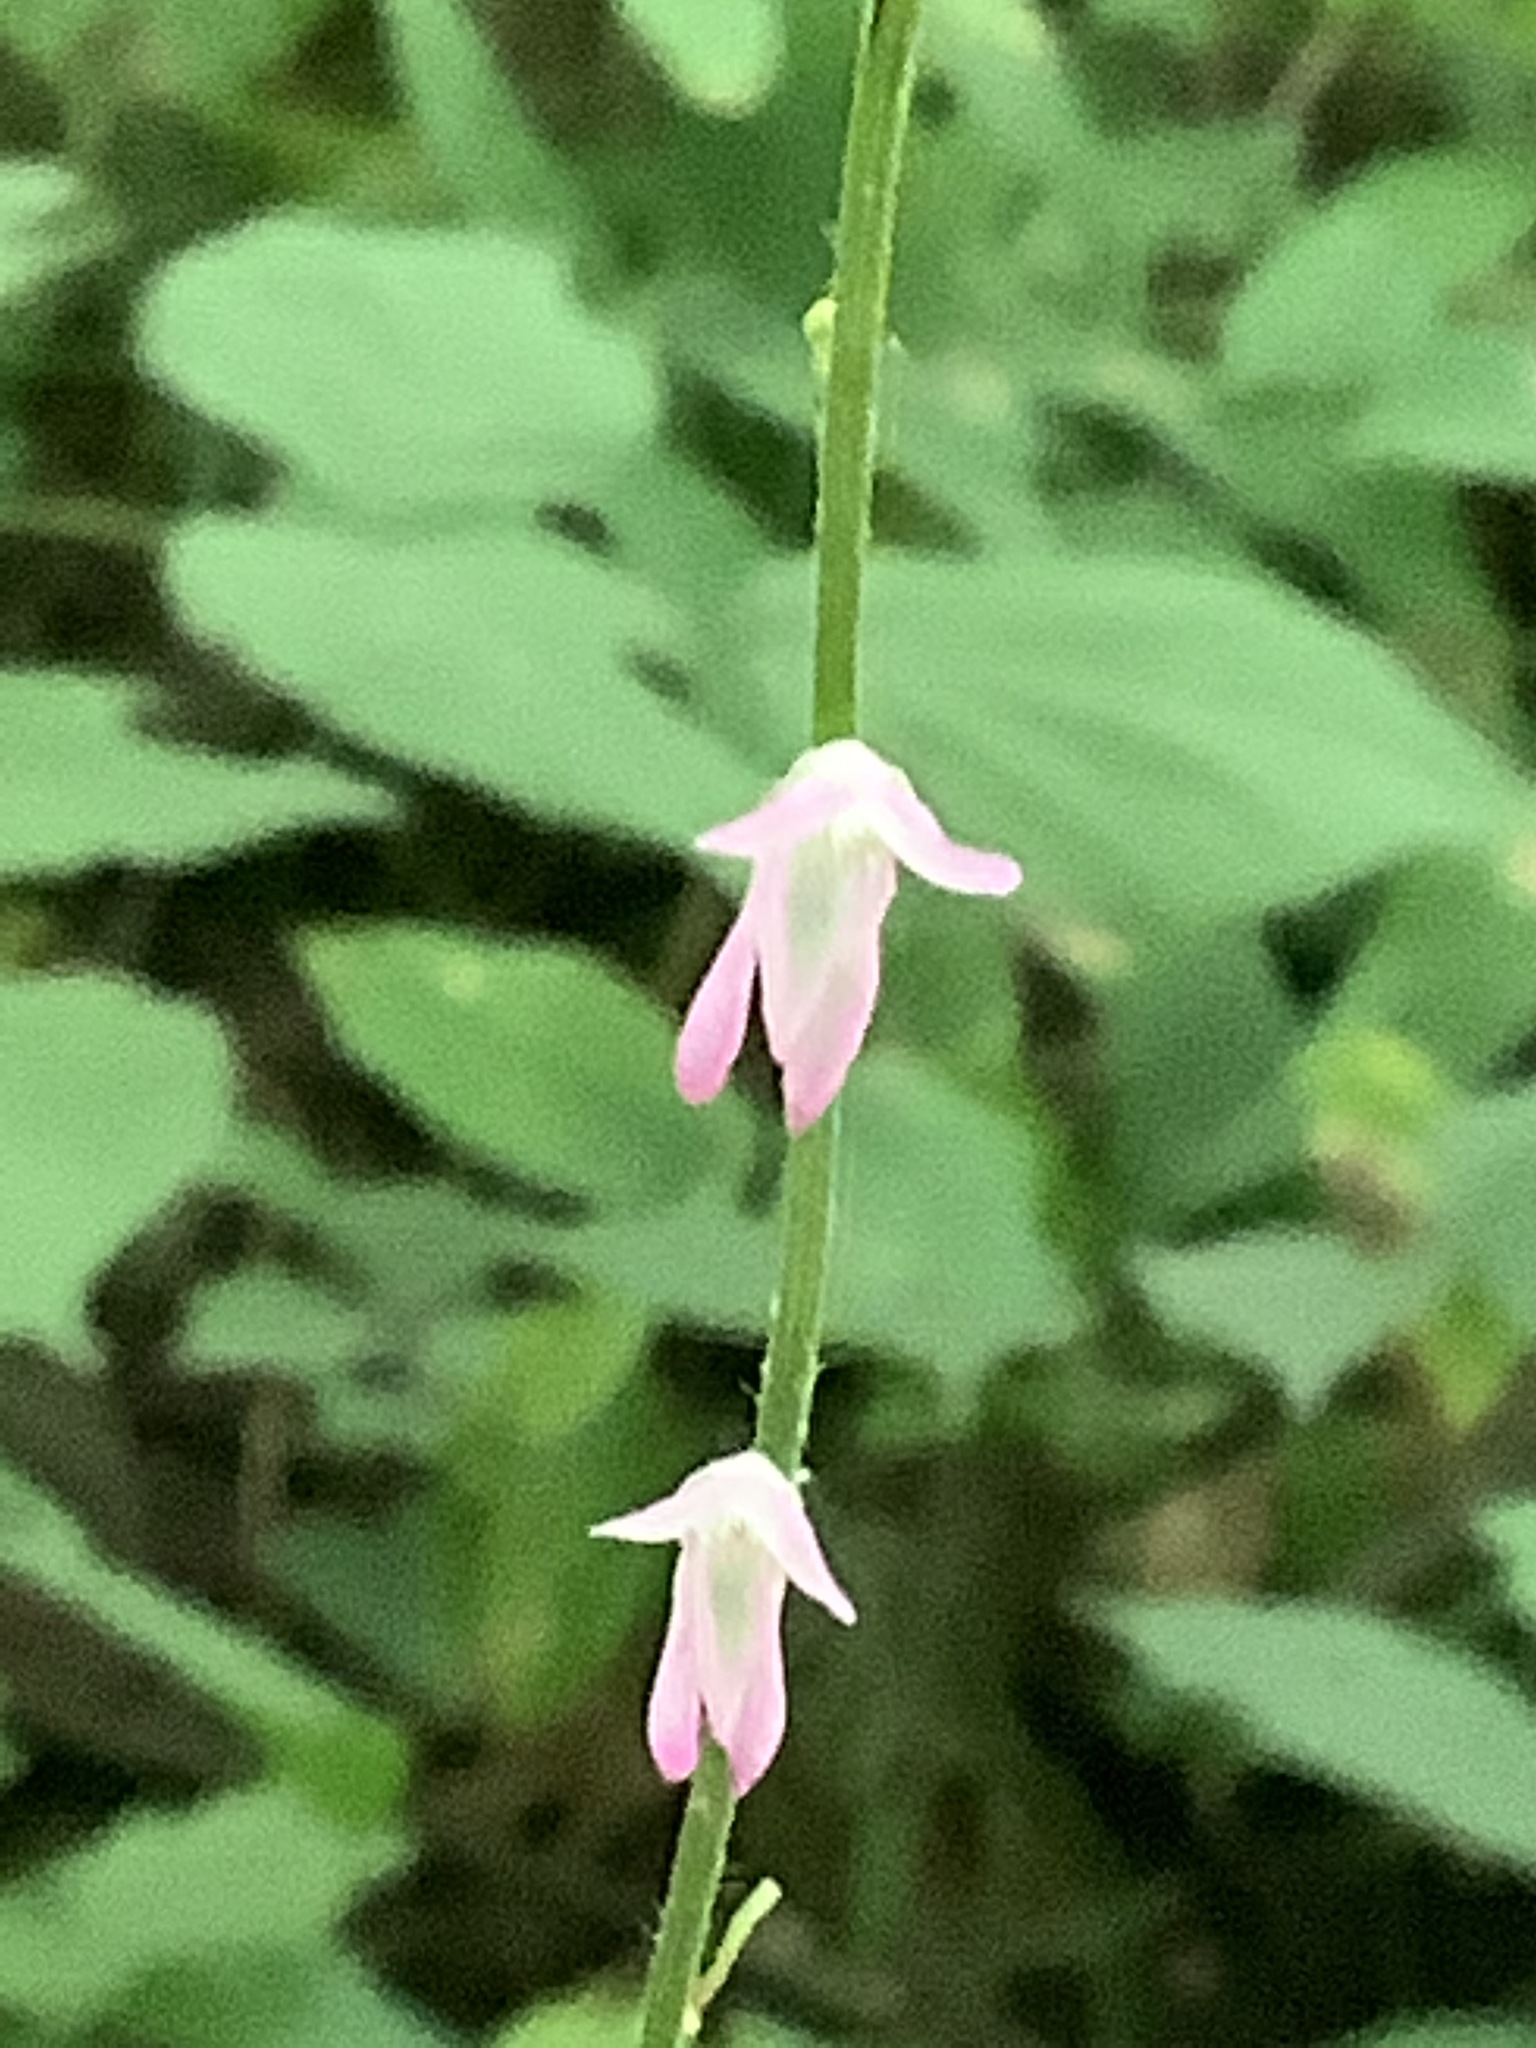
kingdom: Plantae
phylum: Tracheophyta
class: Magnoliopsida
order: Fabales
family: Fabaceae
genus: Hylodesmum
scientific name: Hylodesmum glutinosum
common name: Clustered-leaved tick-trefoil
